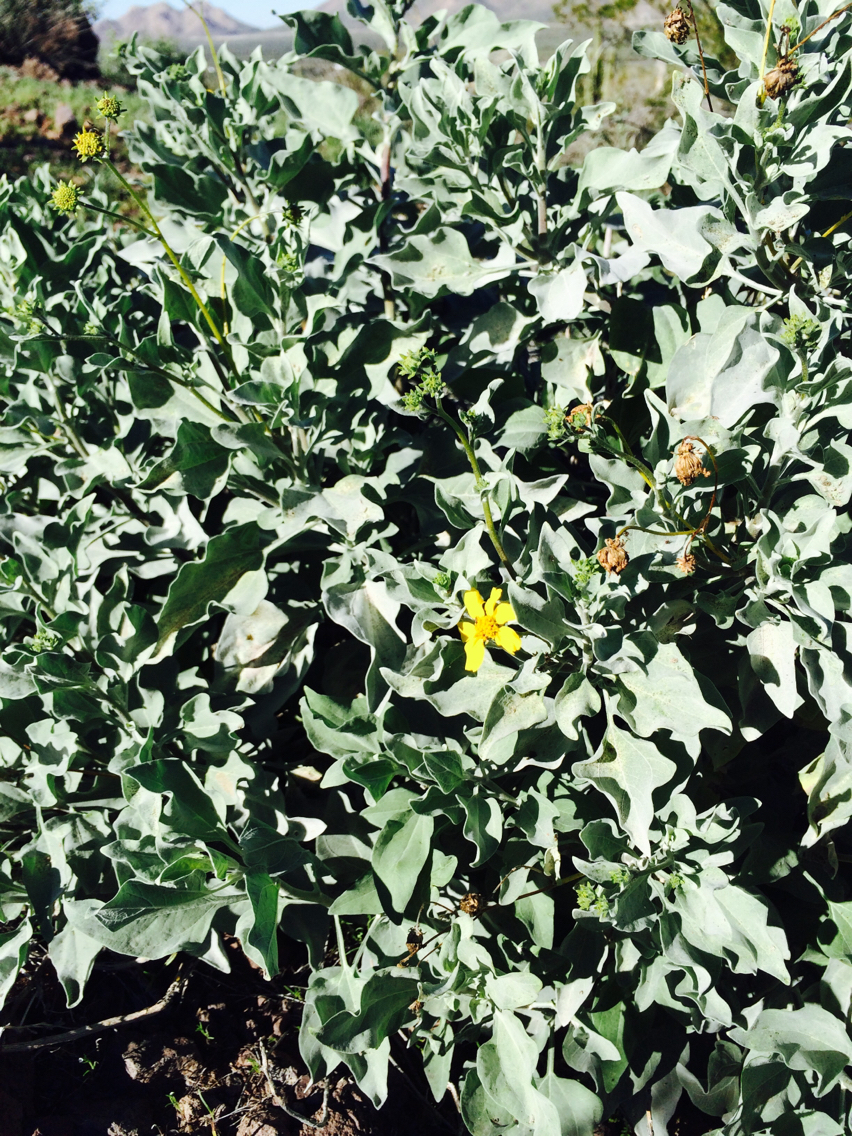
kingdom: Plantae
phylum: Tracheophyta
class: Magnoliopsida
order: Asterales
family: Asteraceae
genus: Encelia
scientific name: Encelia farinosa
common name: Brittlebush
